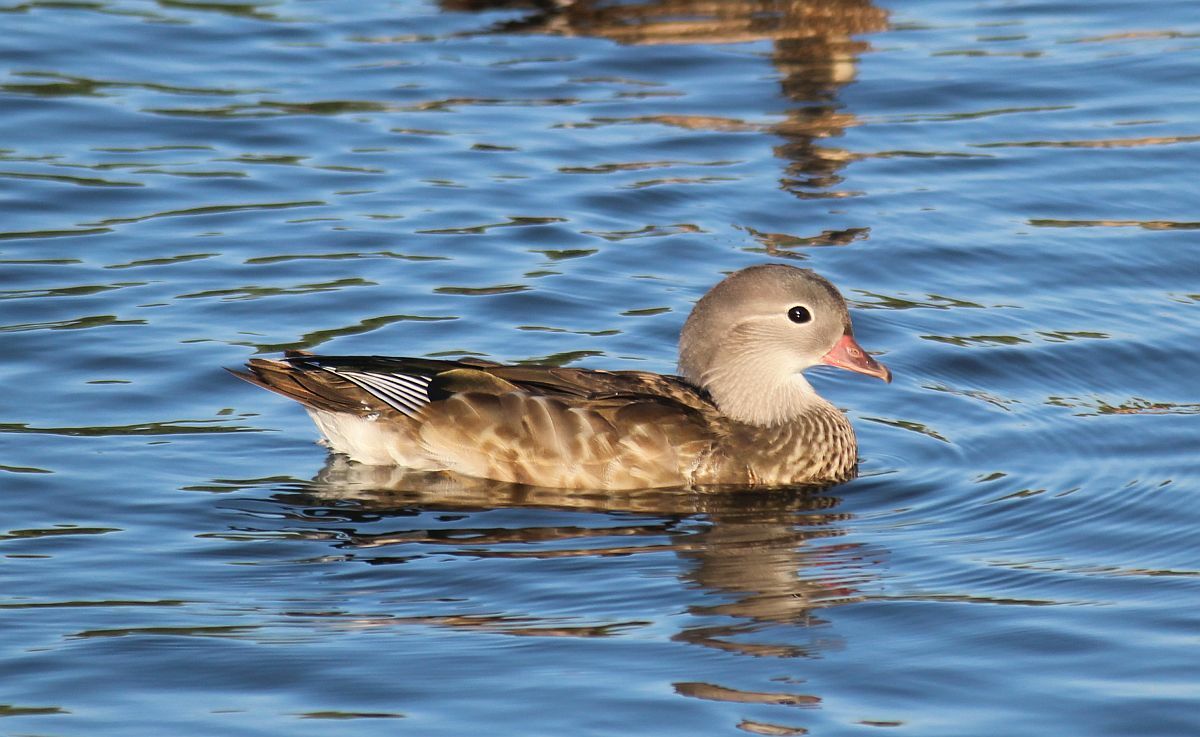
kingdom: Animalia
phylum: Chordata
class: Aves
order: Anseriformes
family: Anatidae
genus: Aix
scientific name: Aix galericulata
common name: Mandarin duck
